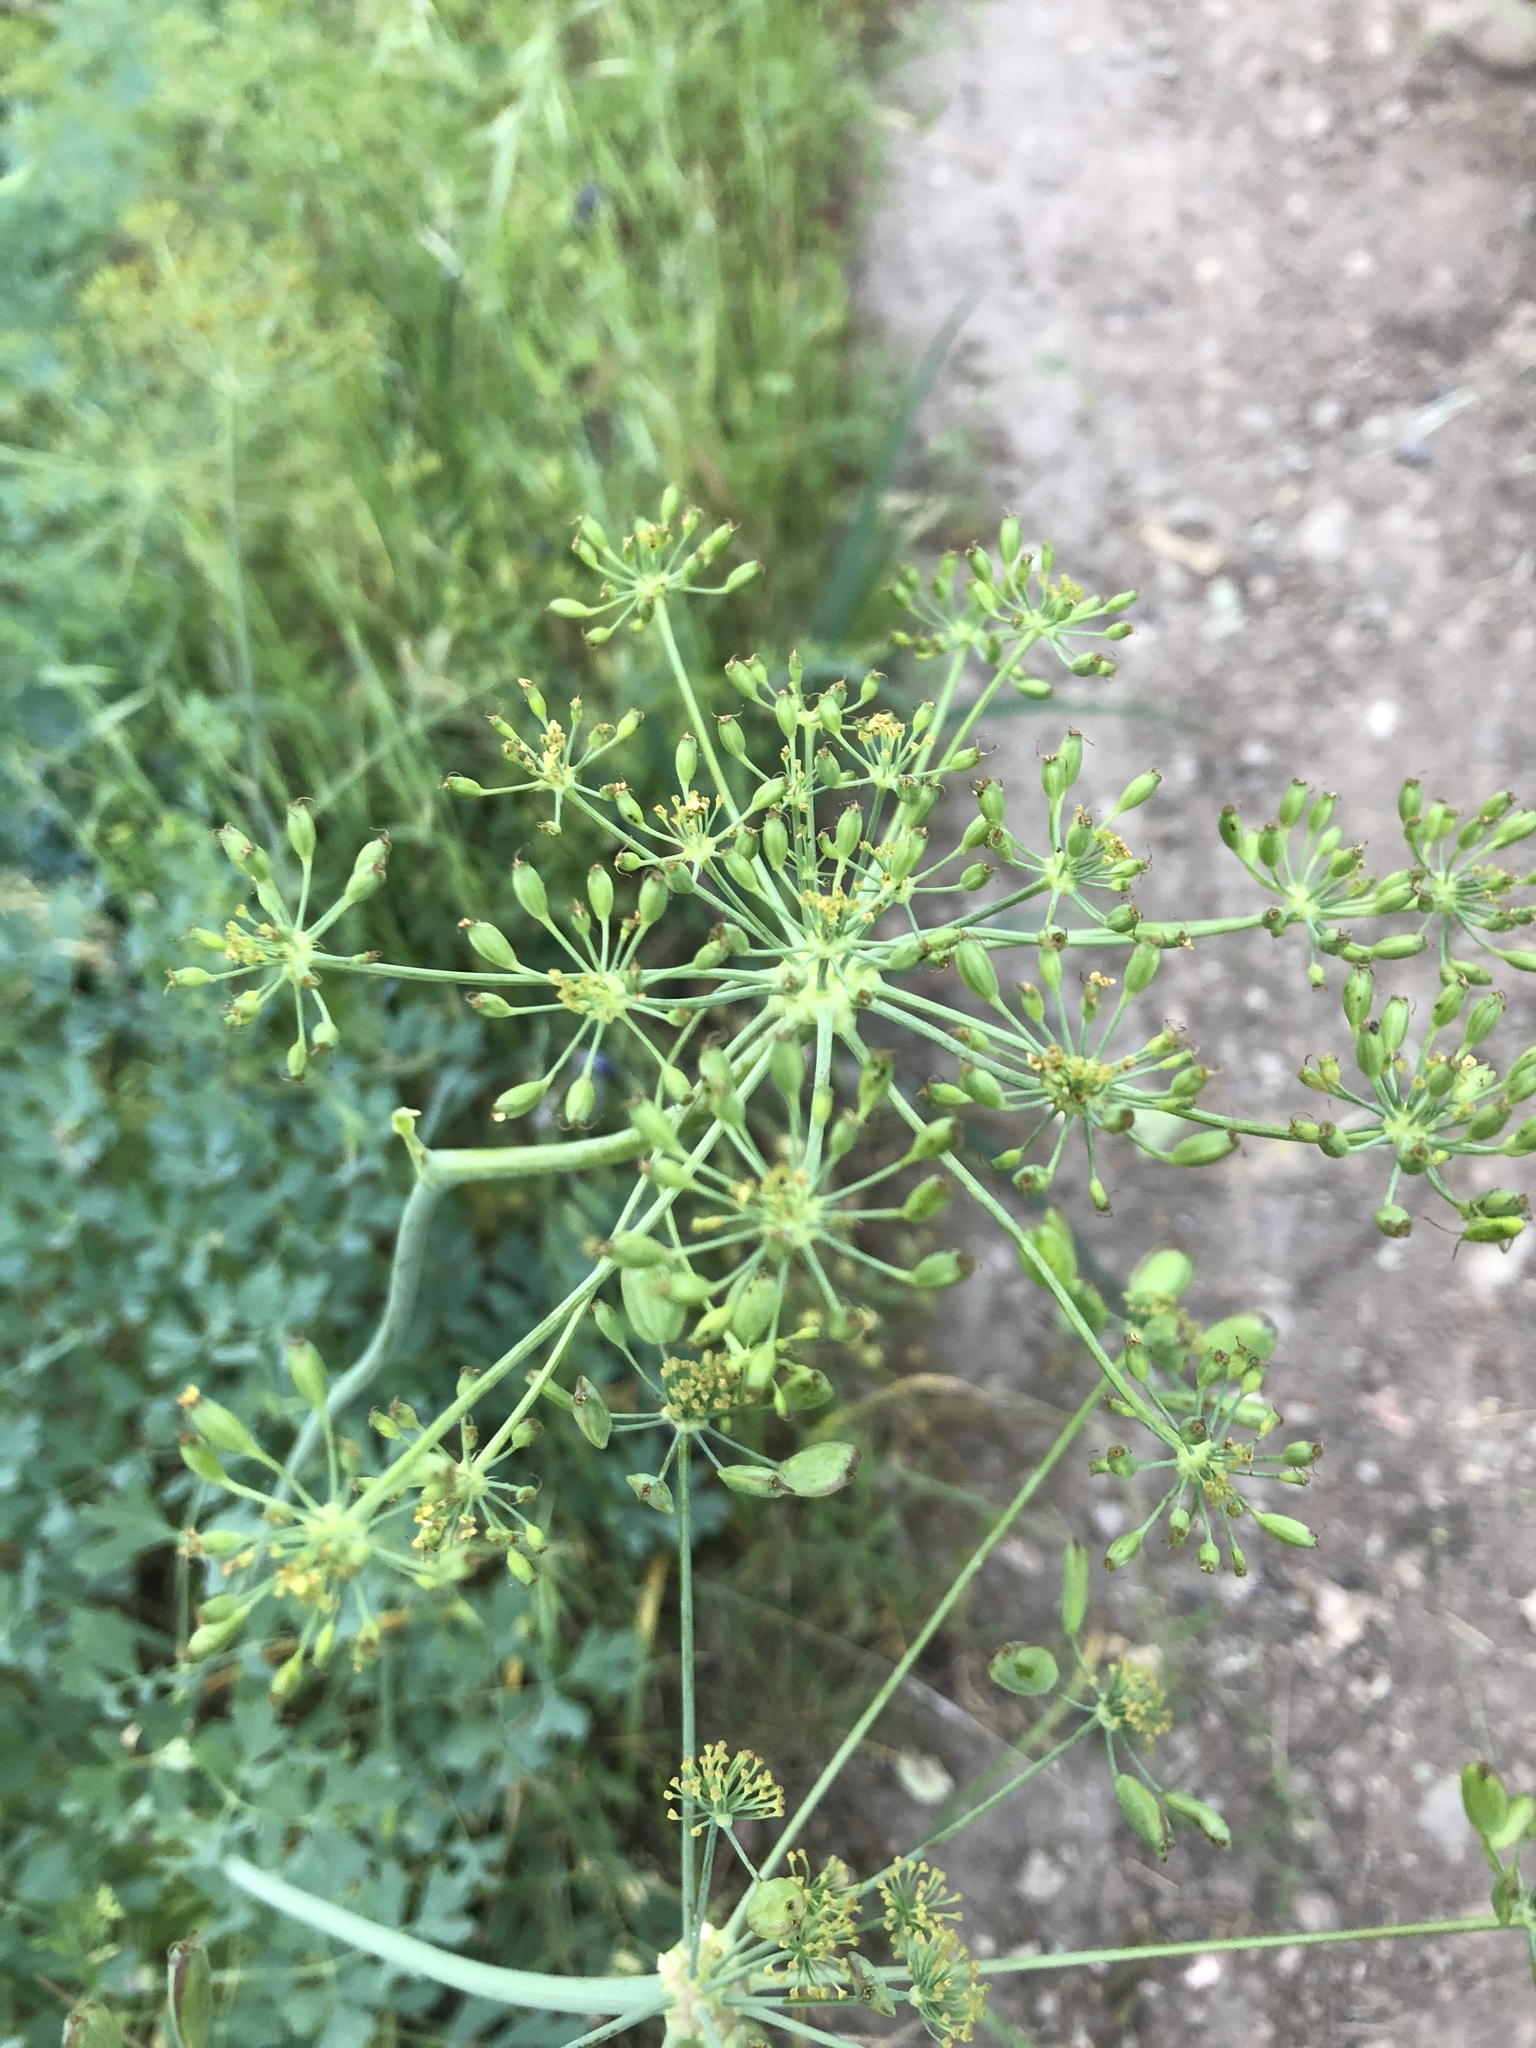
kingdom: Plantae
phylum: Tracheophyta
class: Magnoliopsida
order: Apiales
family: Apiaceae
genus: Lomatium
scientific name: Lomatium californicum
